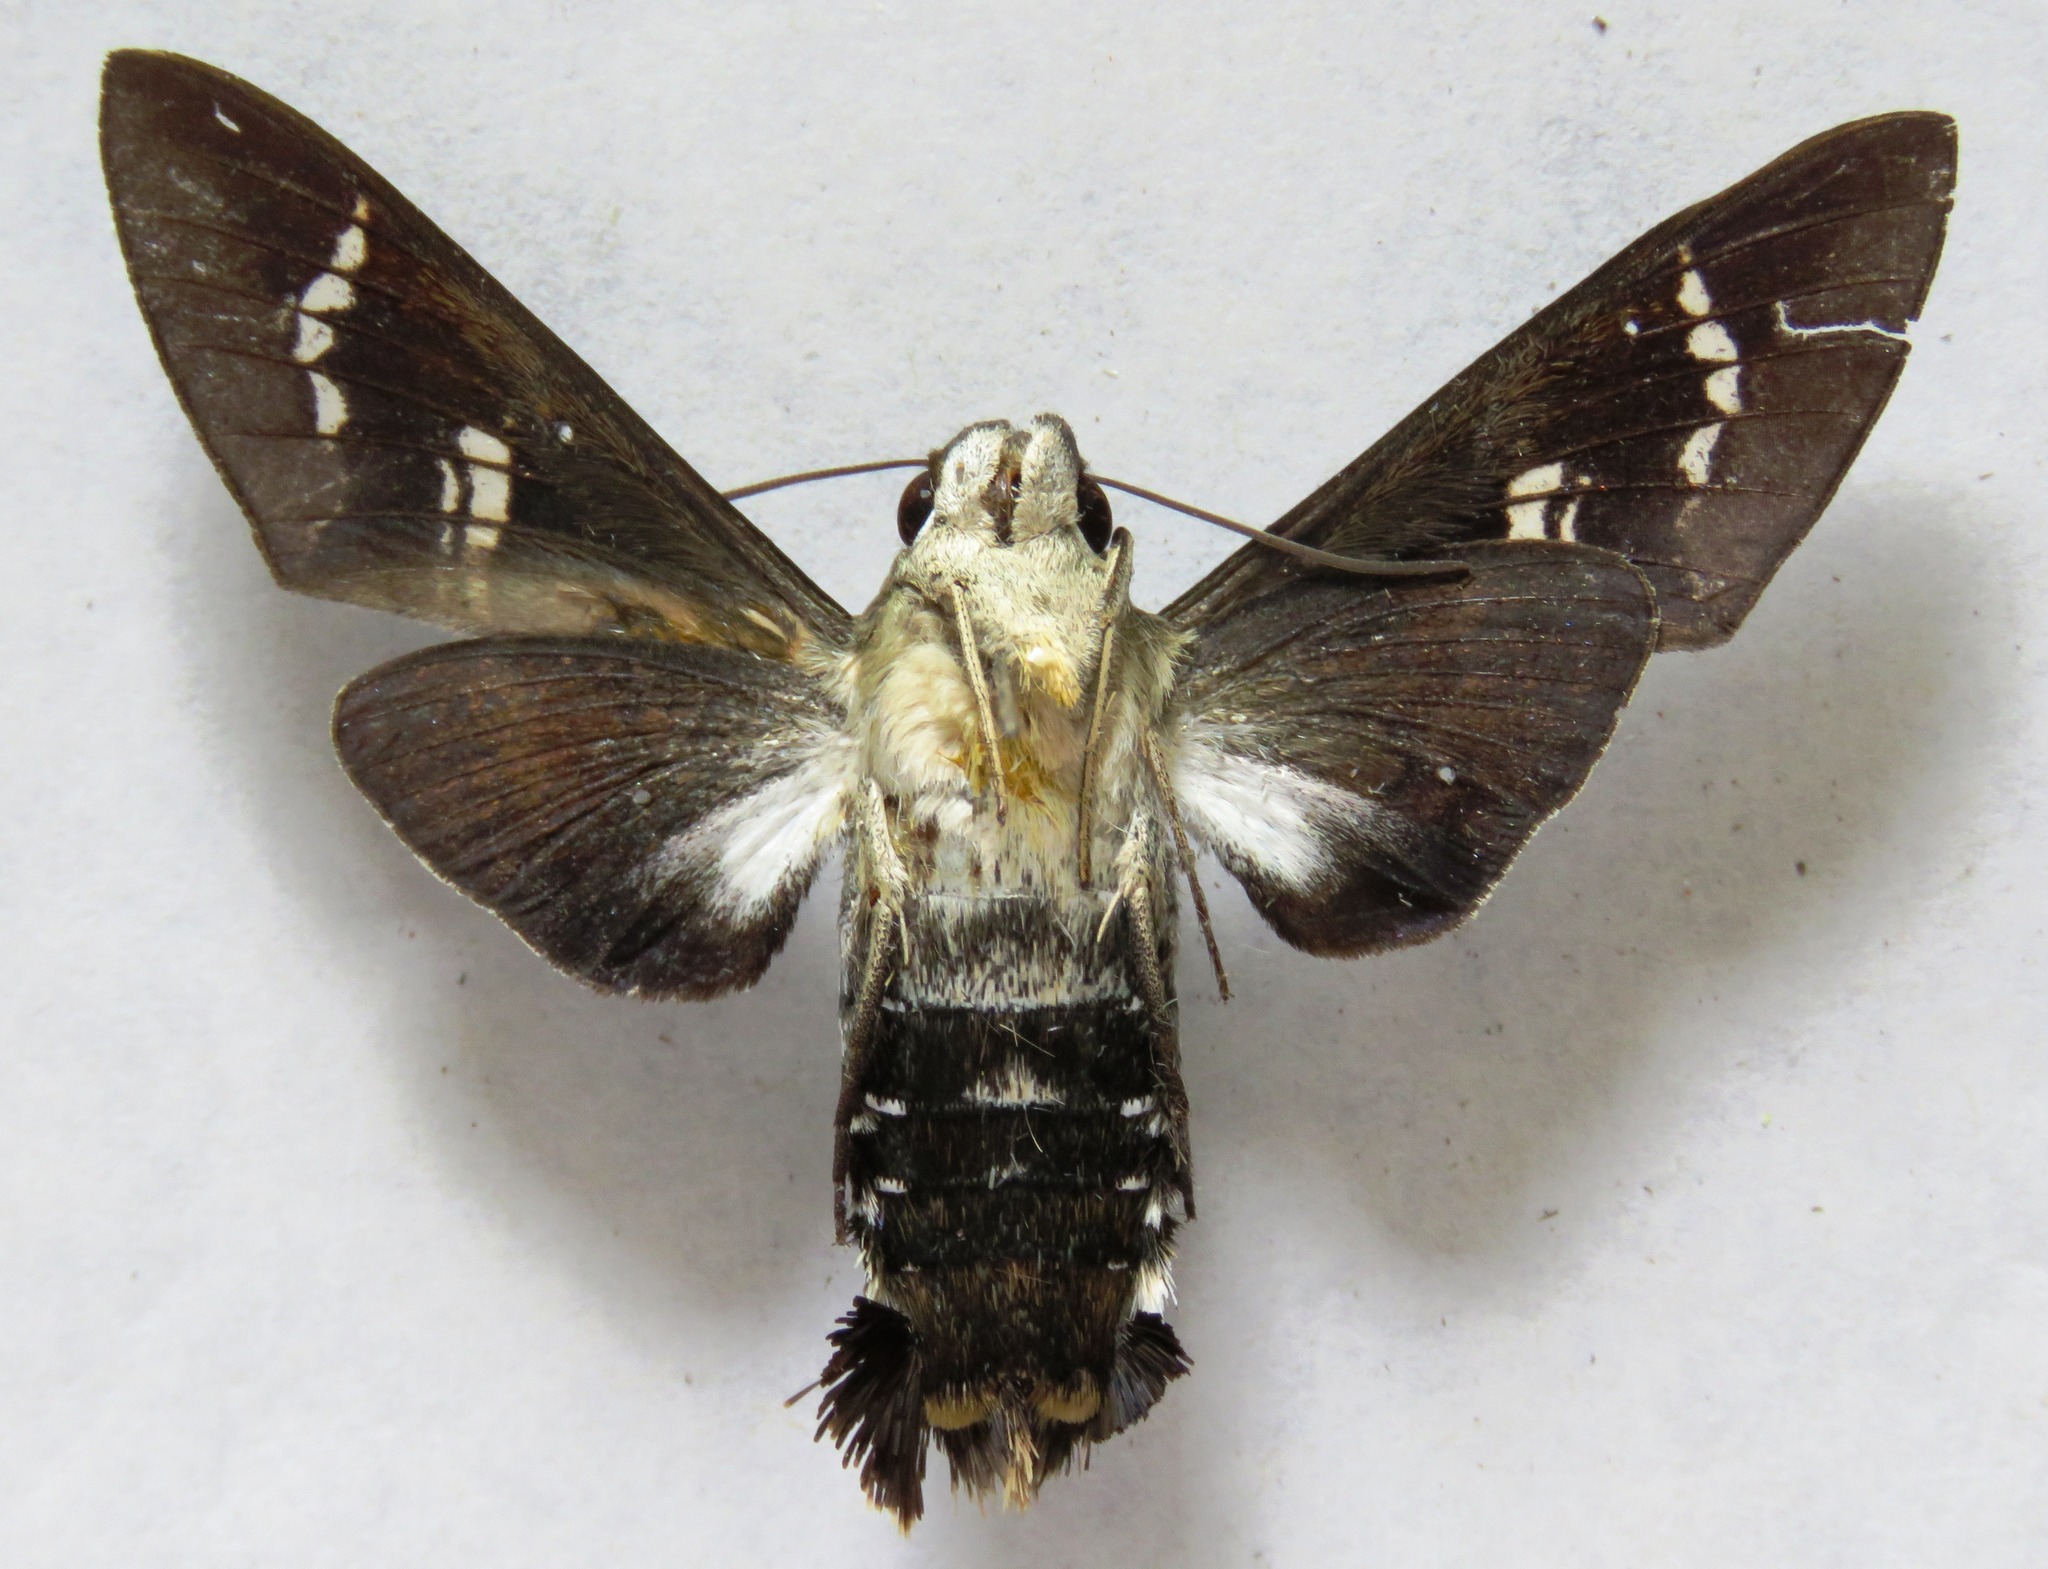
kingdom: Animalia
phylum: Arthropoda
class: Insecta
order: Lepidoptera
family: Sphingidae
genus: Aellopos
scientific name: Aellopos titan
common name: Titan sphinx
